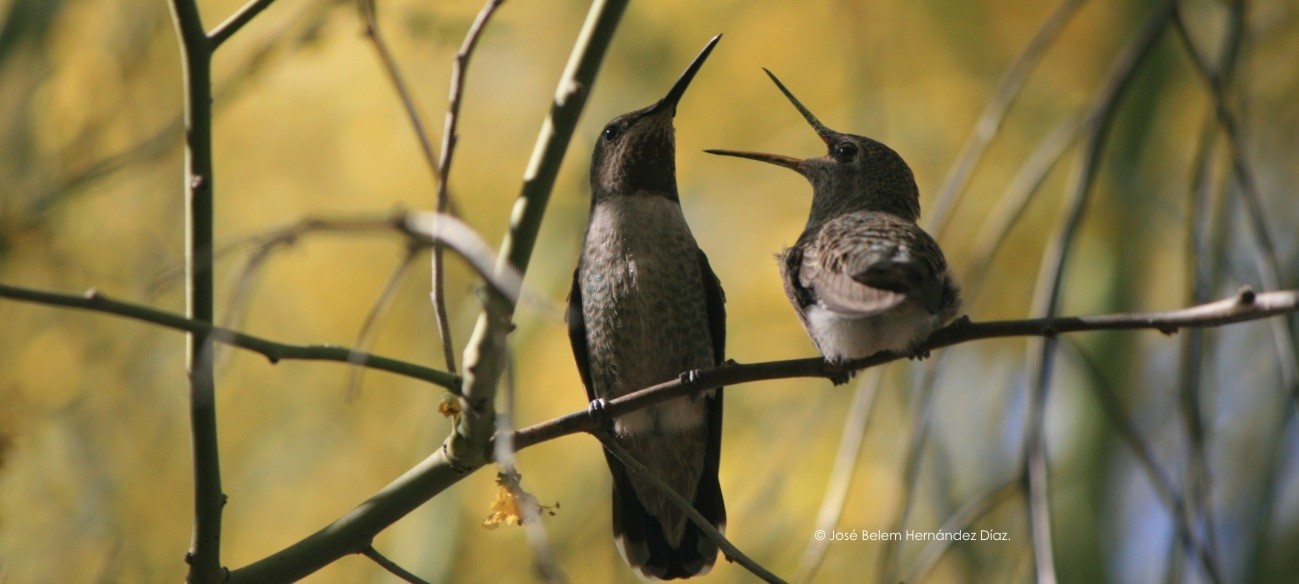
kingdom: Animalia
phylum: Chordata
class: Aves
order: Apodiformes
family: Trochilidae
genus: Calypte
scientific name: Calypte anna
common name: Anna's hummingbird
